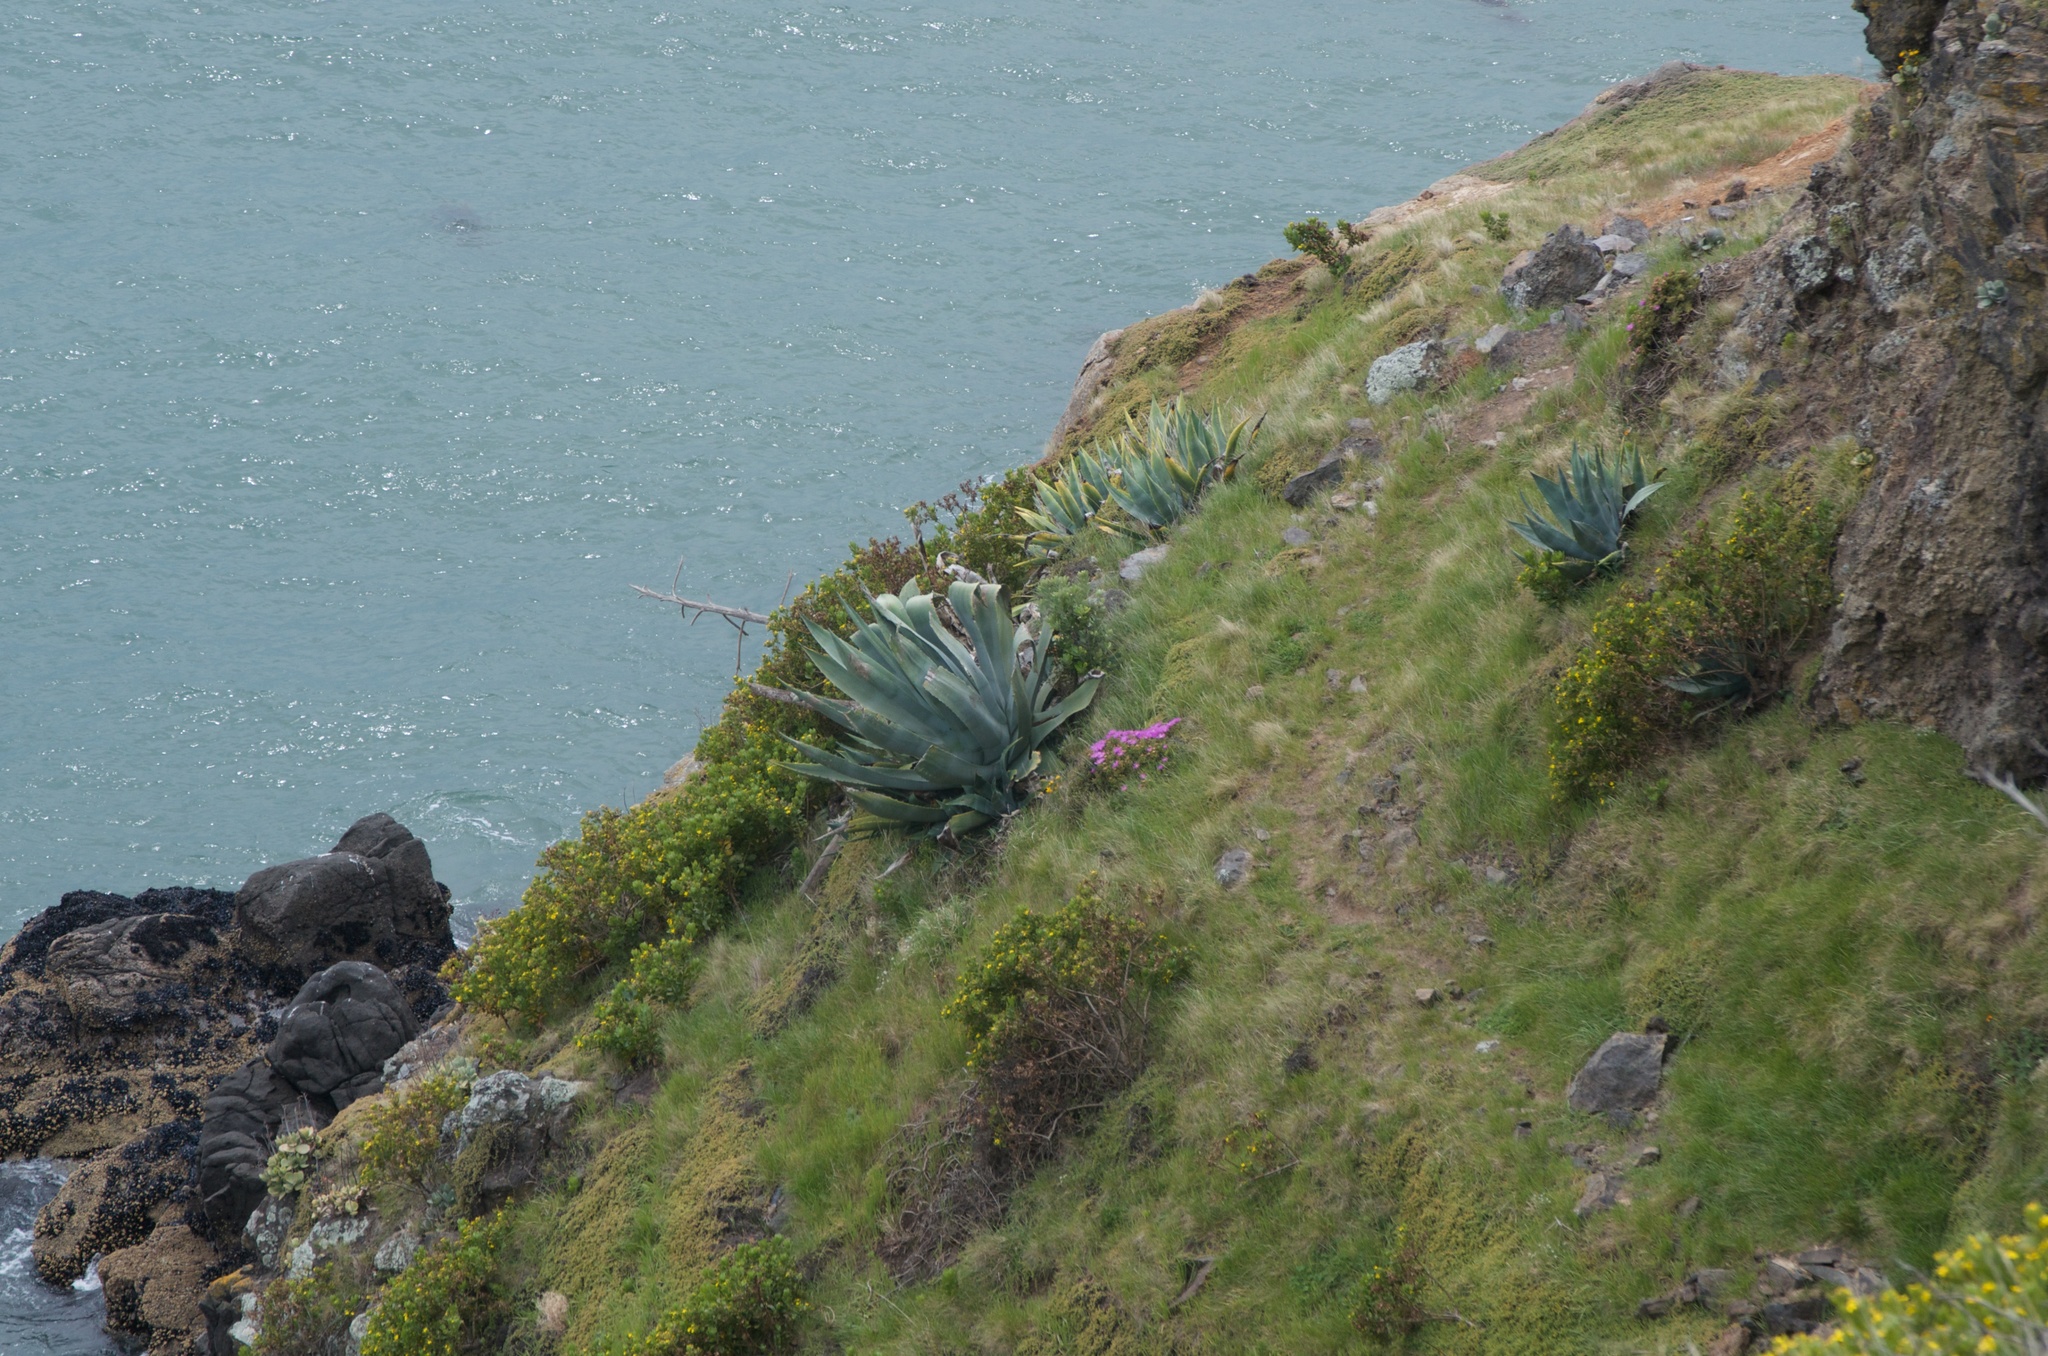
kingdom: Plantae
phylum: Tracheophyta
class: Liliopsida
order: Asparagales
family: Asparagaceae
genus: Agave
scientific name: Agave americana
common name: Centuryplant
